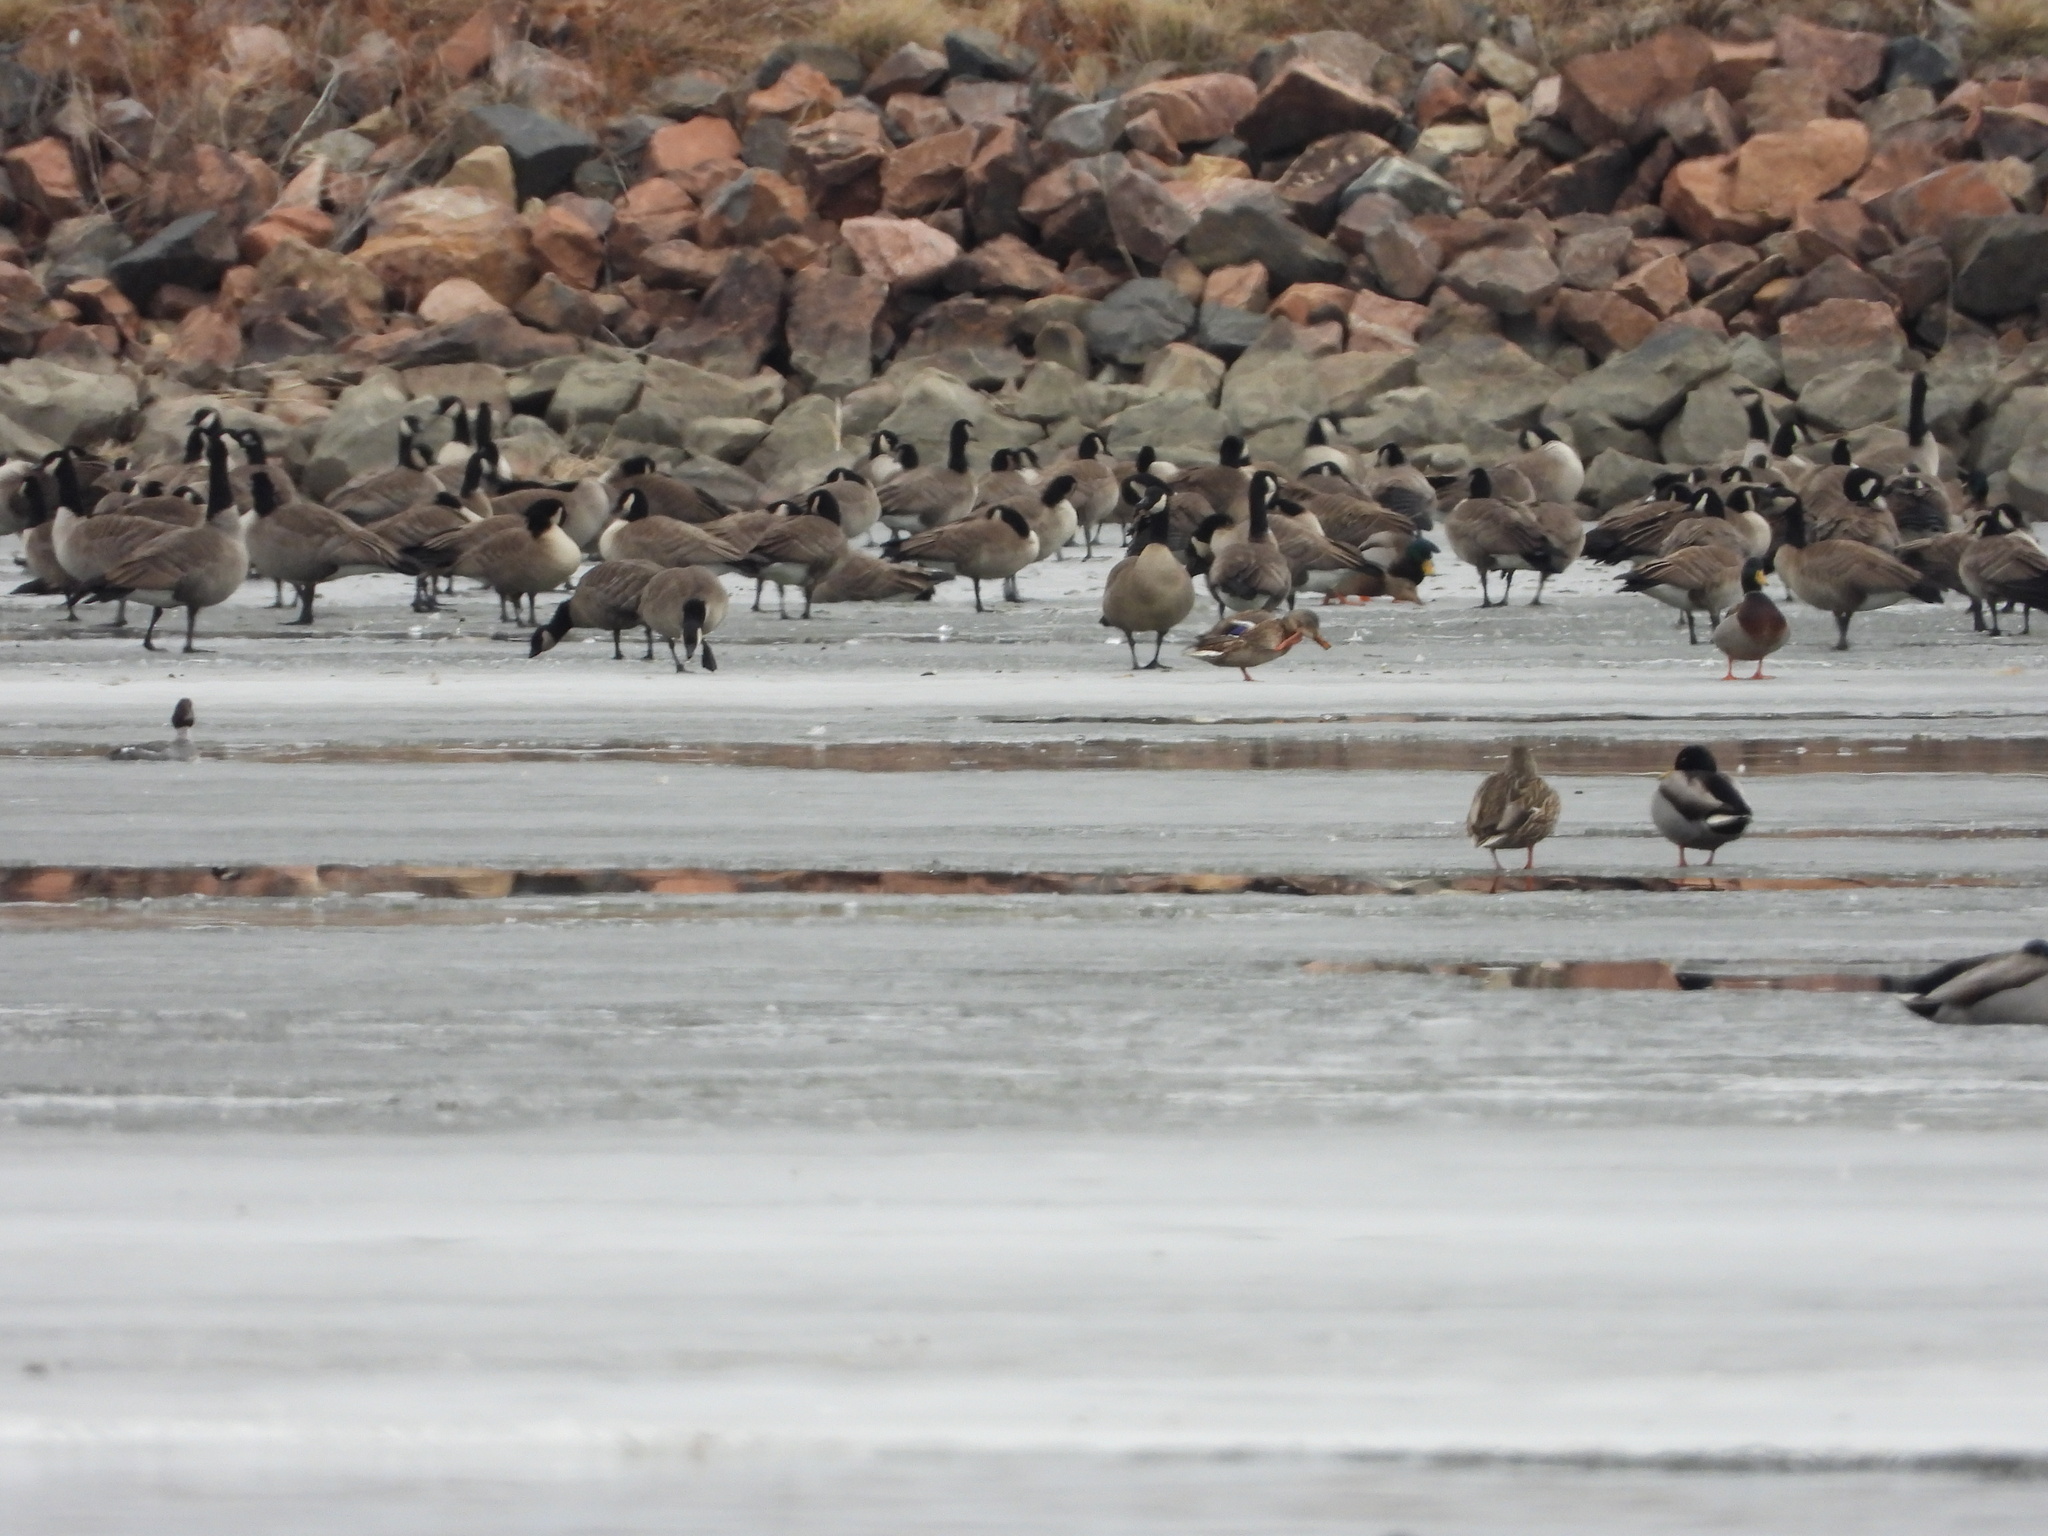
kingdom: Animalia
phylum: Chordata
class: Aves
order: Anseriformes
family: Anatidae
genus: Anas
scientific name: Anas platyrhynchos
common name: Mallard
